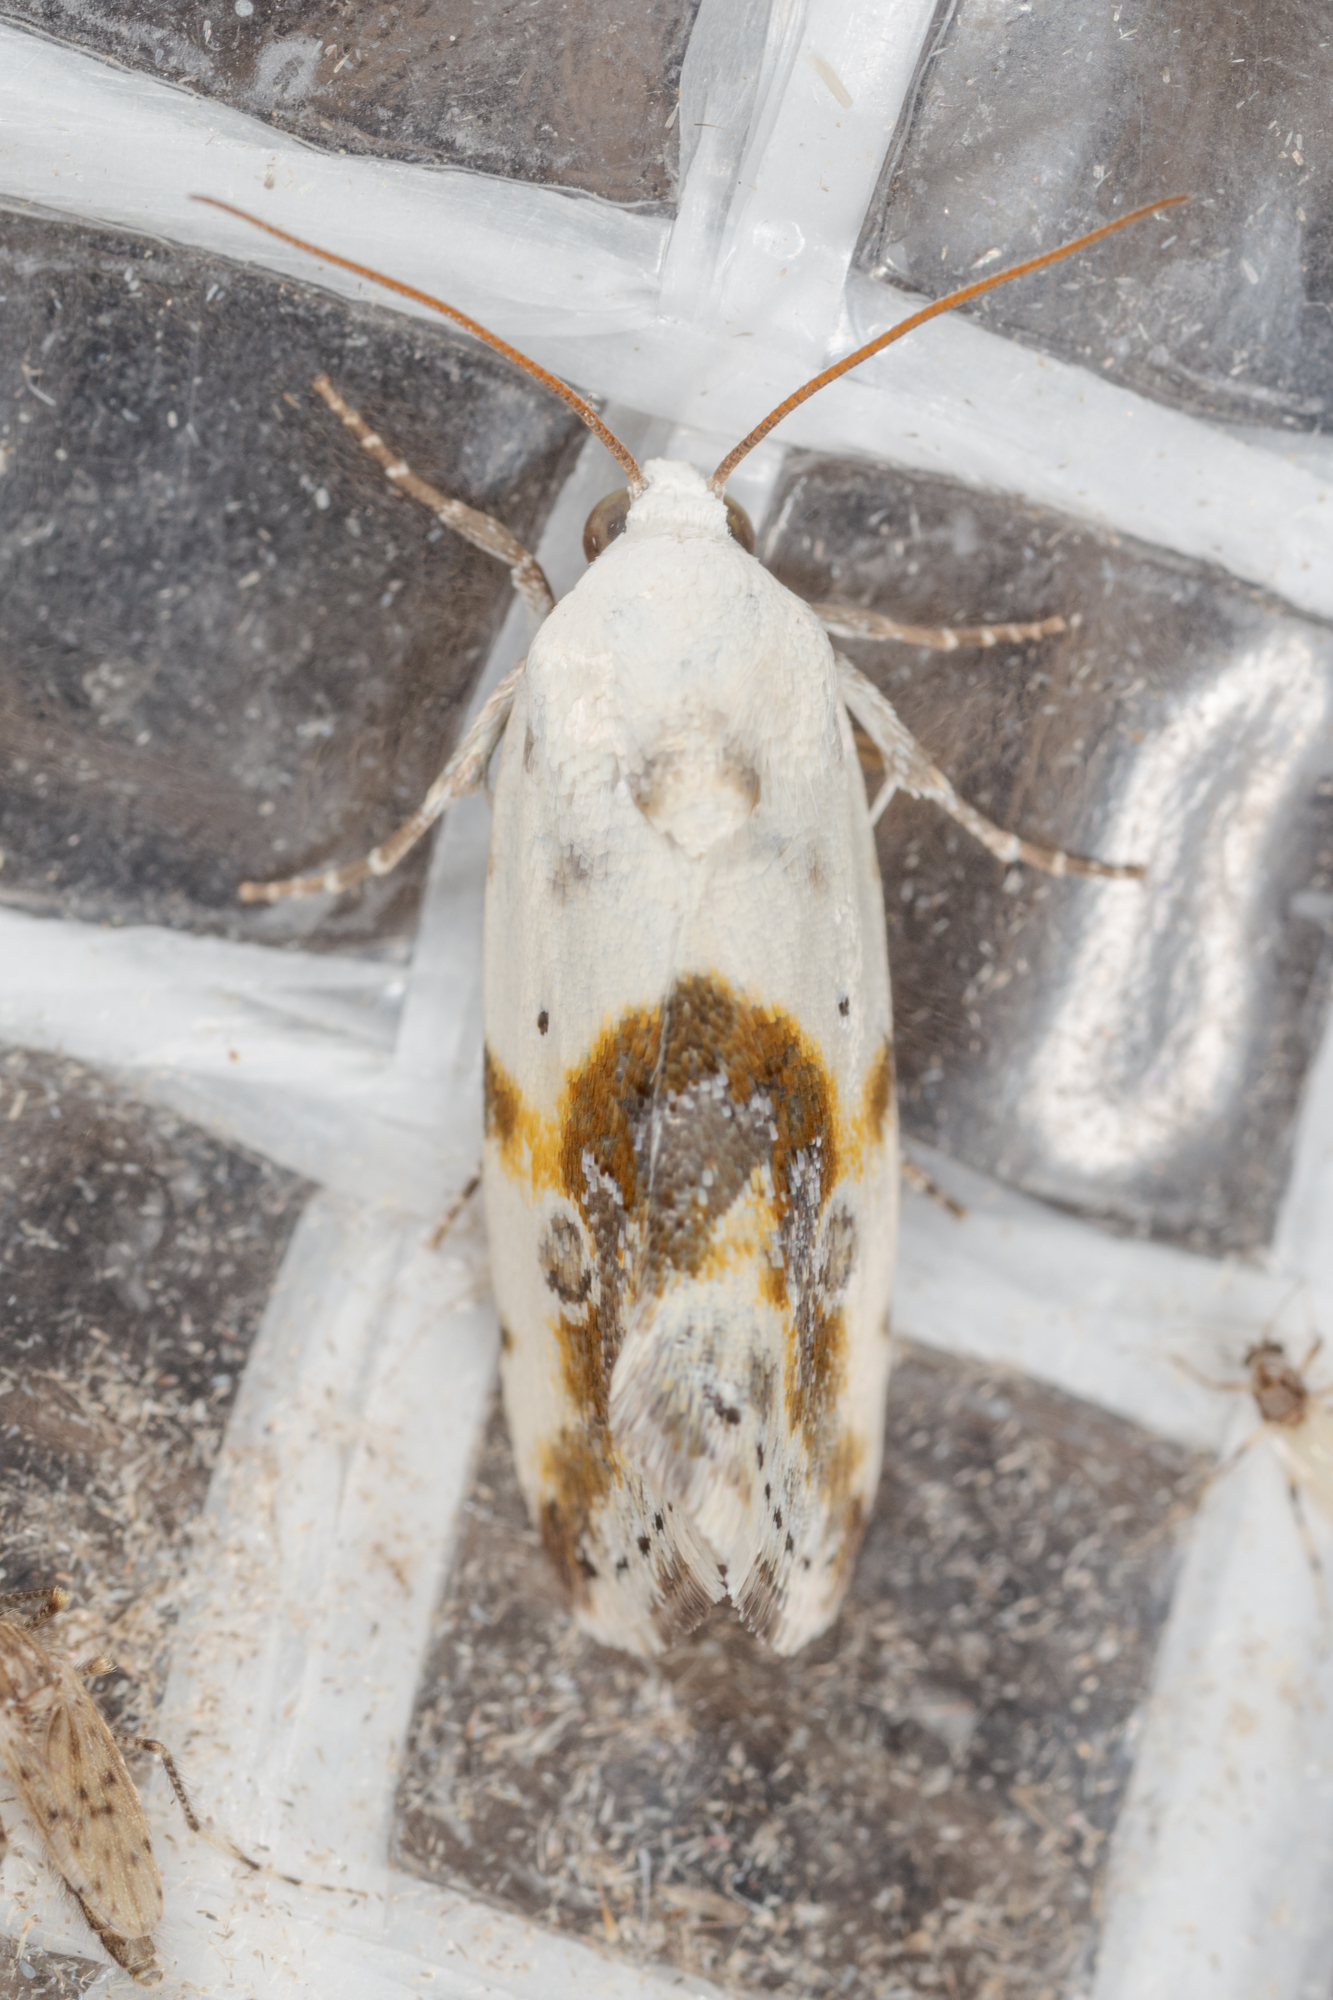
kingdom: Animalia
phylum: Arthropoda
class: Insecta
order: Lepidoptera
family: Noctuidae
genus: Acontia
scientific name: Acontia candefacta
